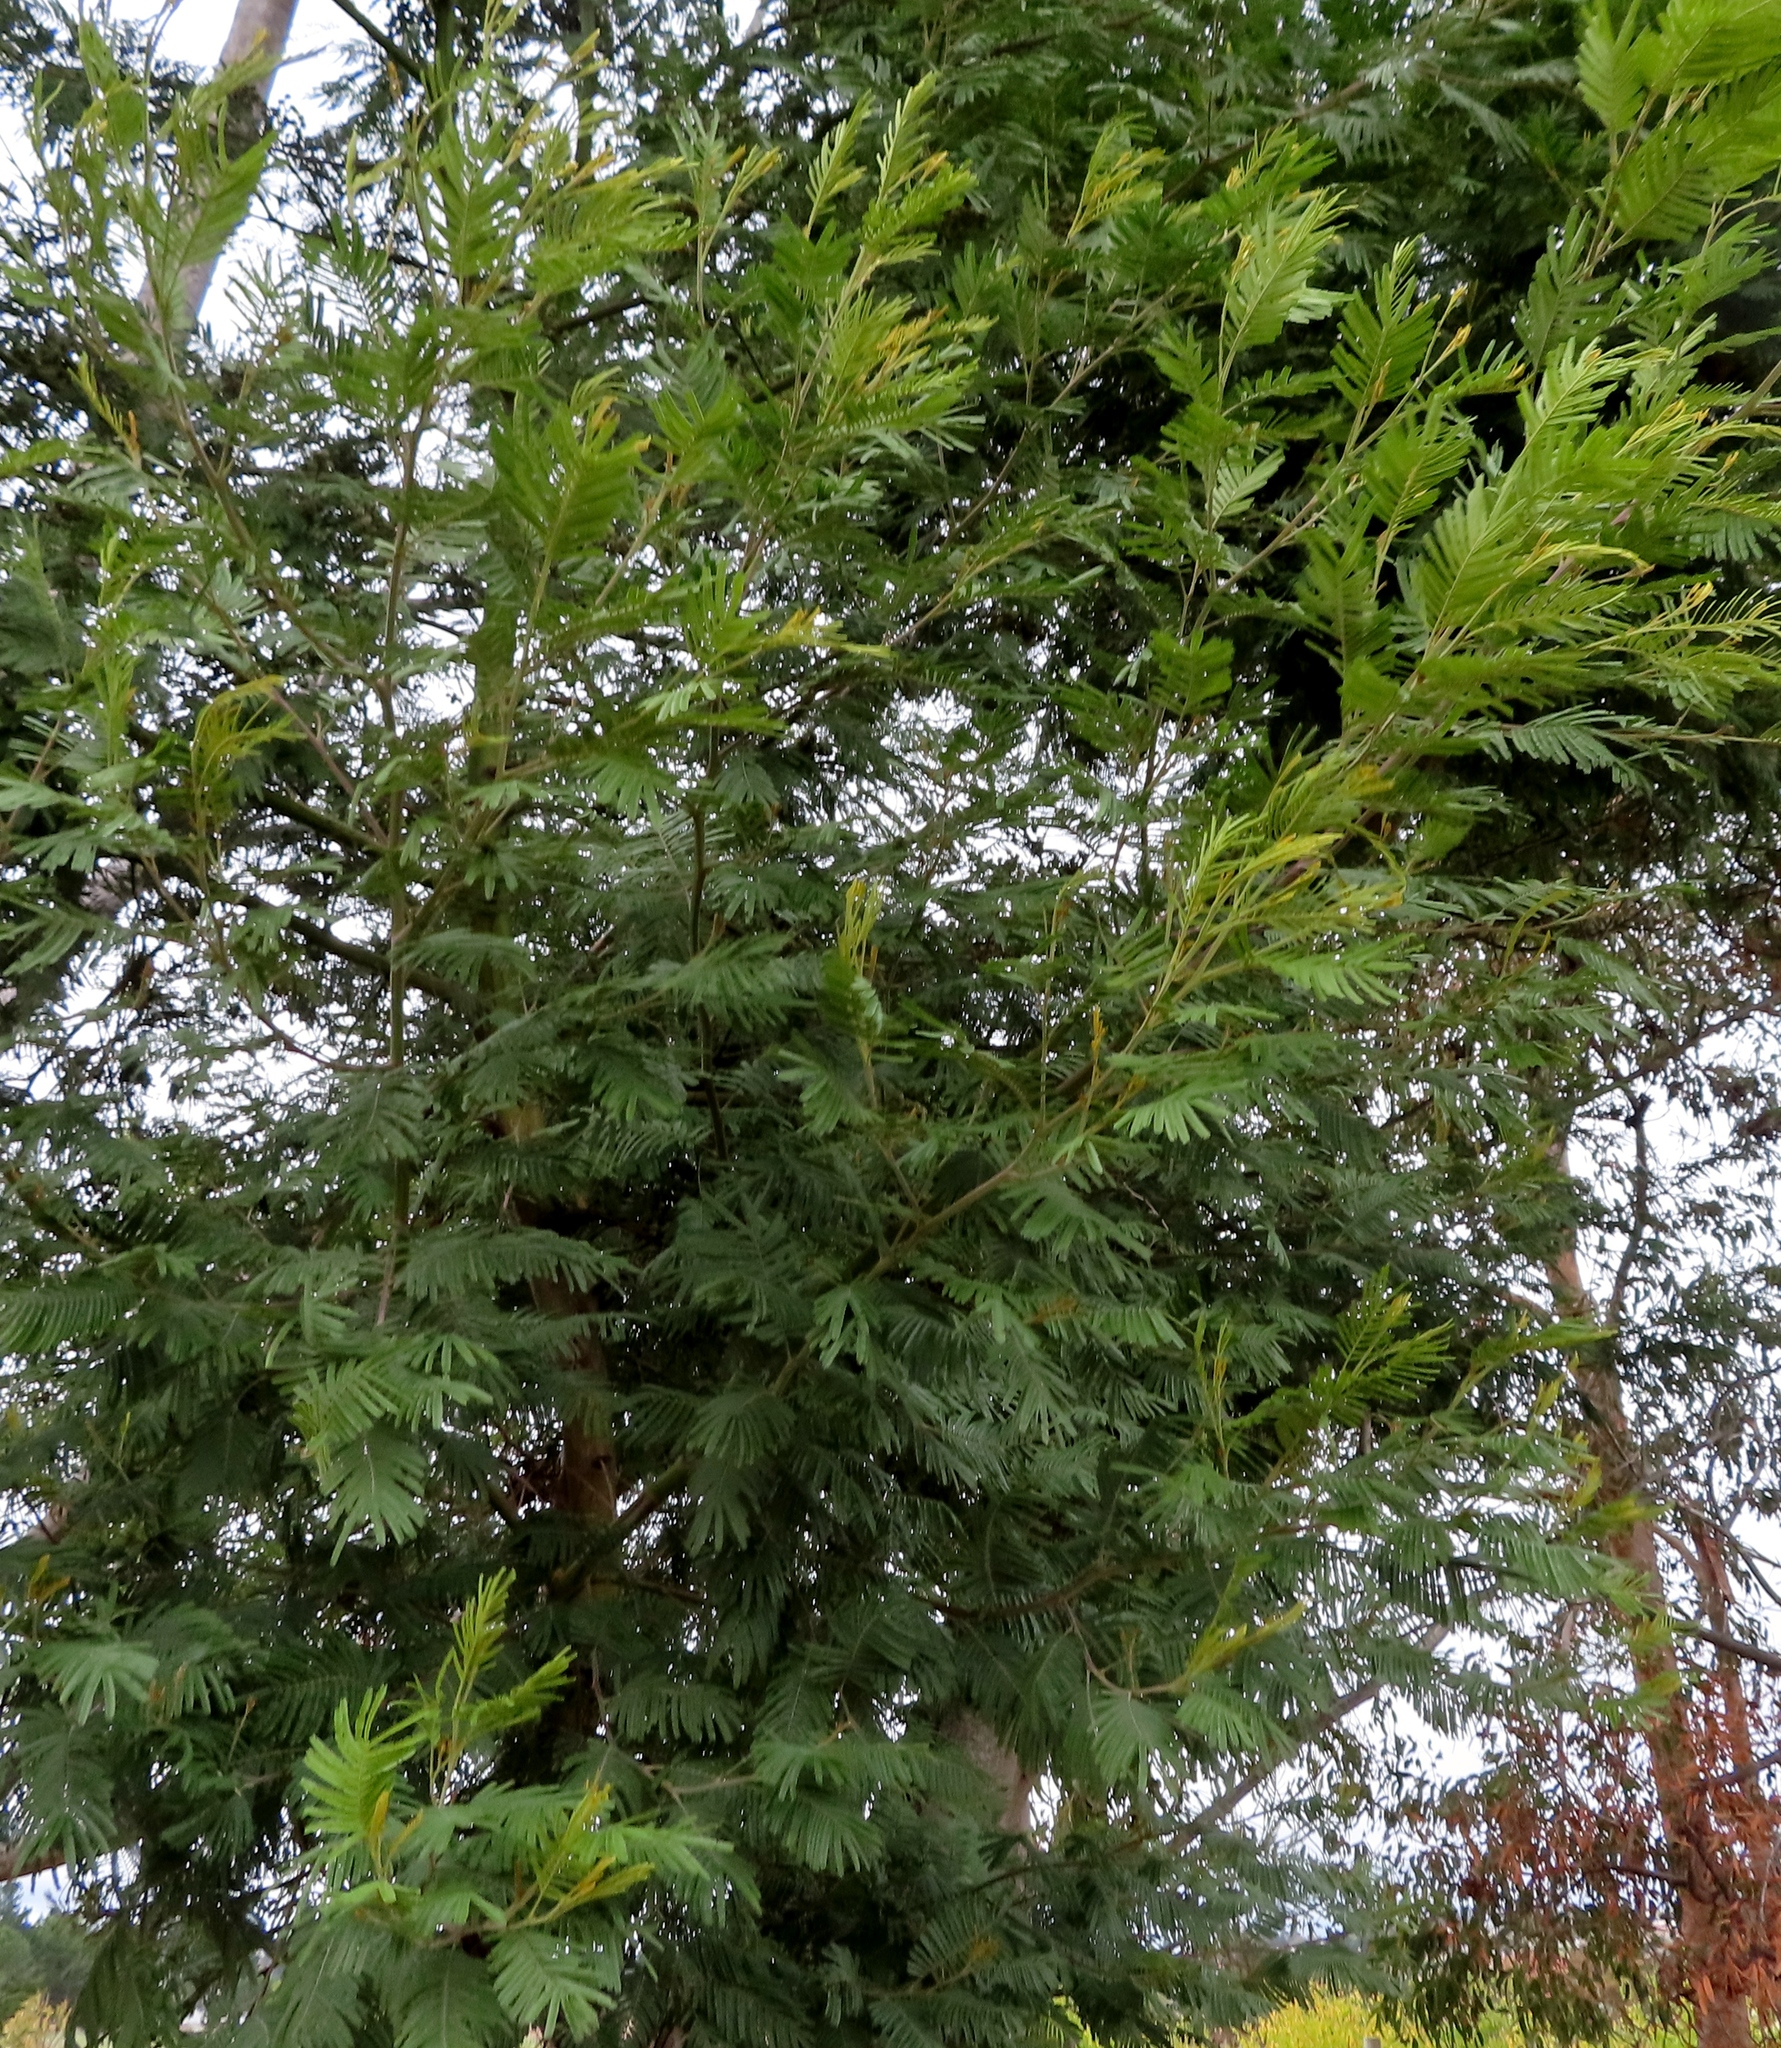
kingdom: Plantae
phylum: Tracheophyta
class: Magnoliopsida
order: Fabales
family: Fabaceae
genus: Acacia
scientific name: Acacia mearnsii
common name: Black wattle
